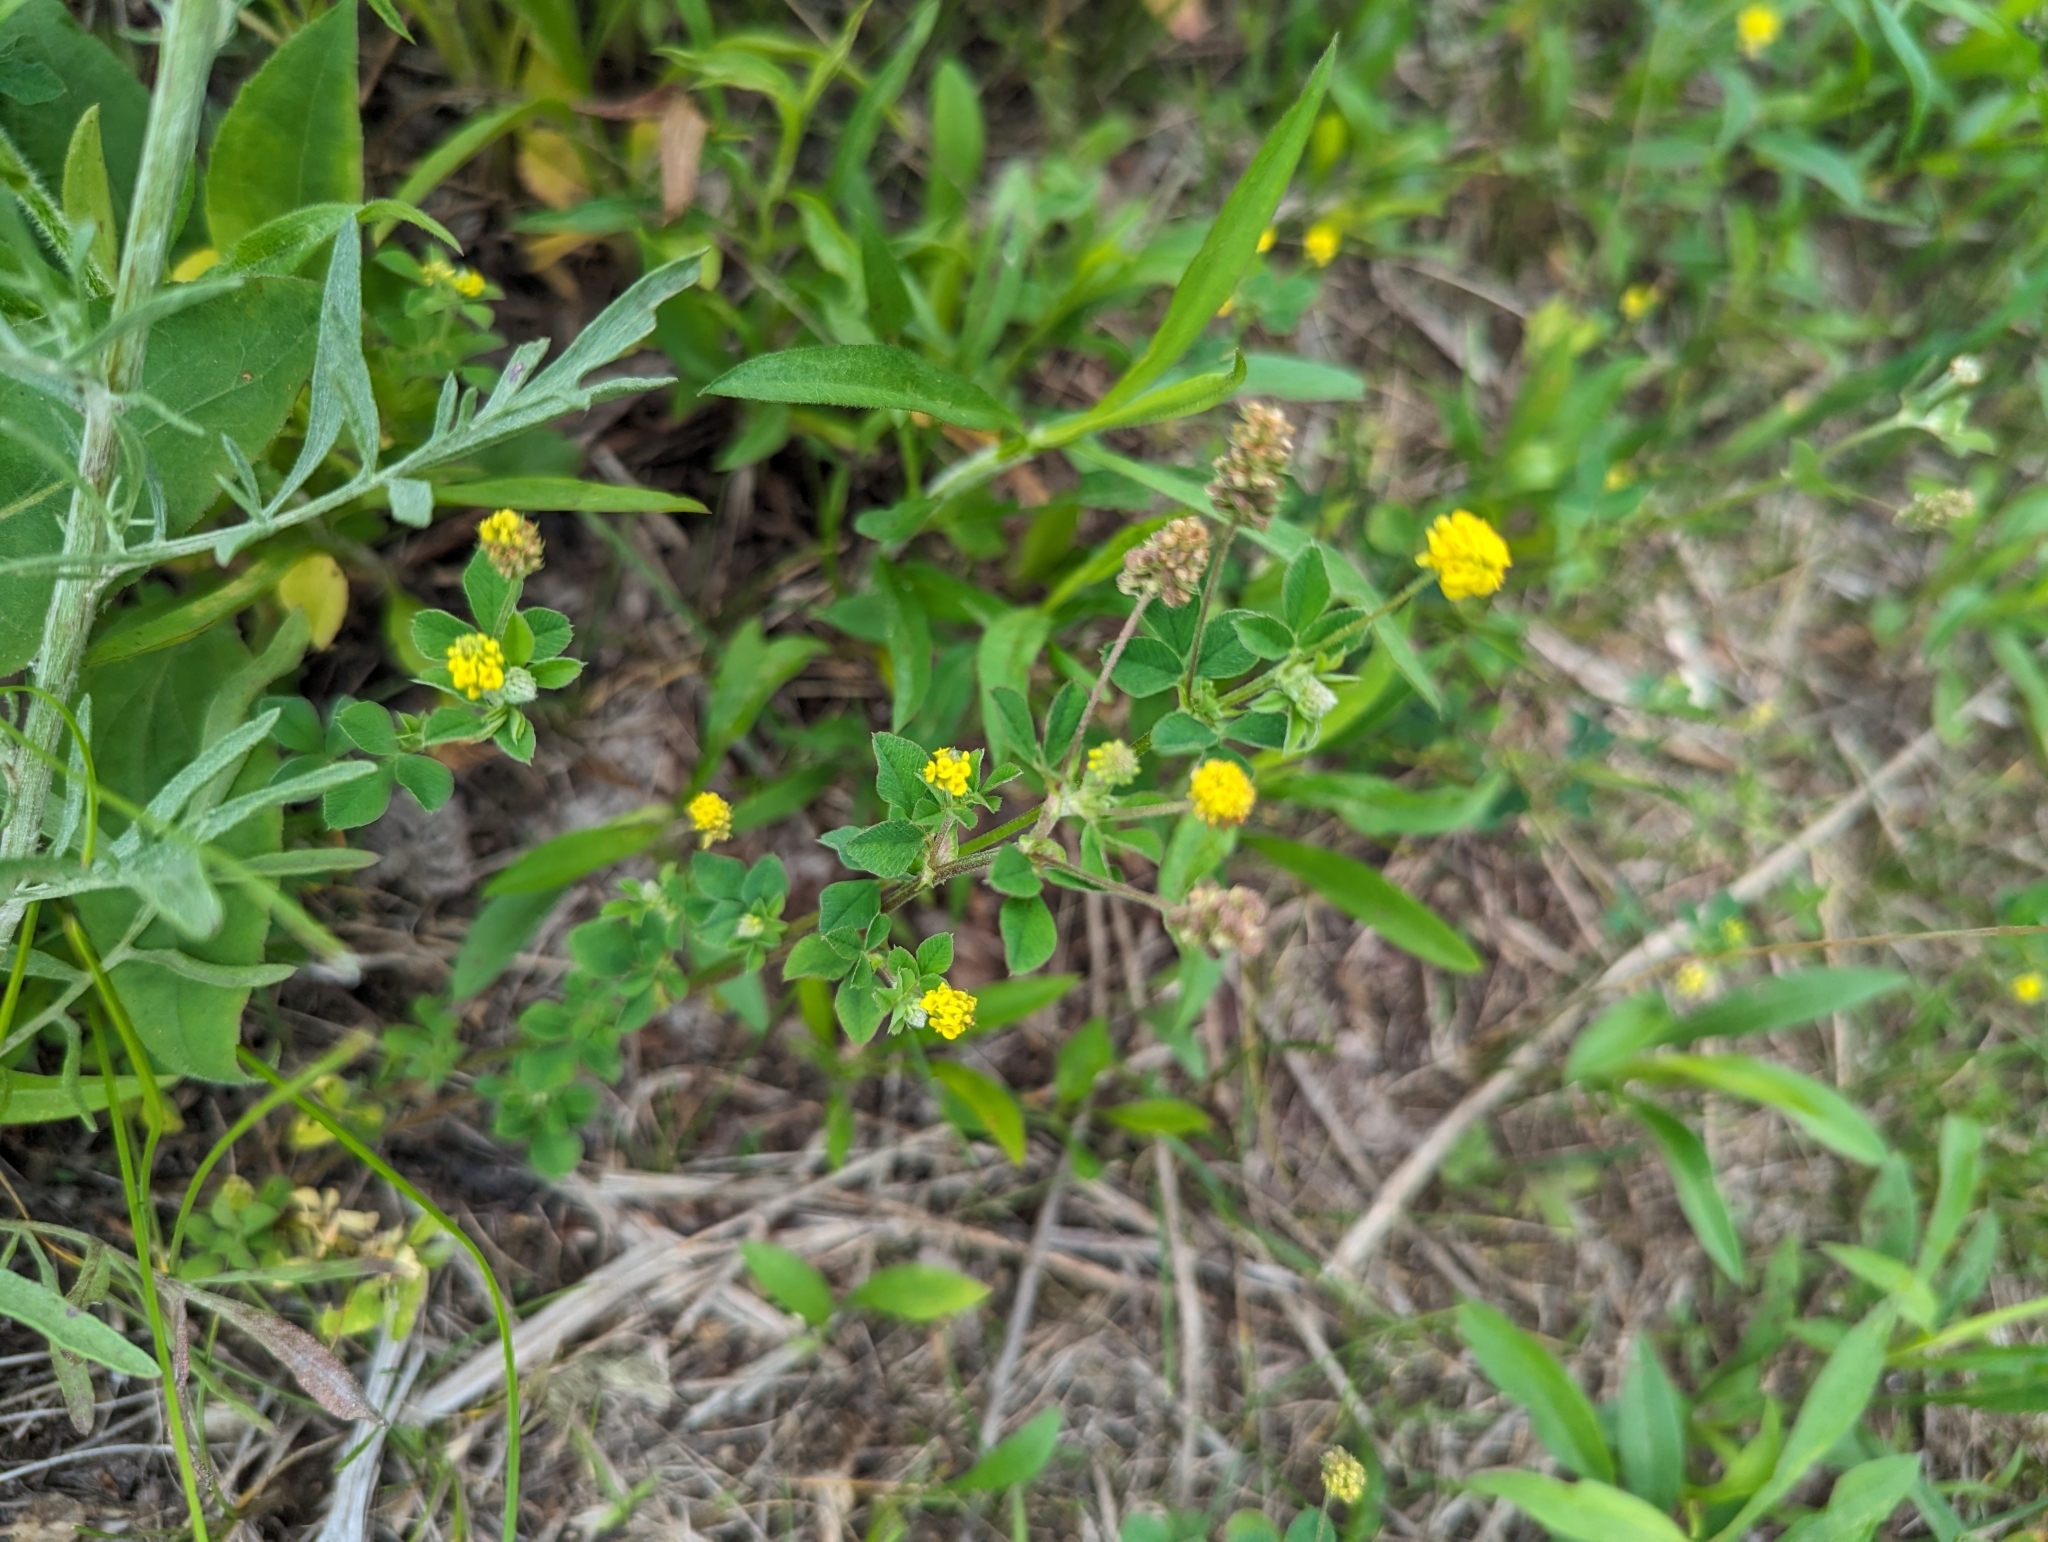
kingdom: Plantae
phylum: Tracheophyta
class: Magnoliopsida
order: Fabales
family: Fabaceae
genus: Medicago
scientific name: Medicago lupulina
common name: Black medick
